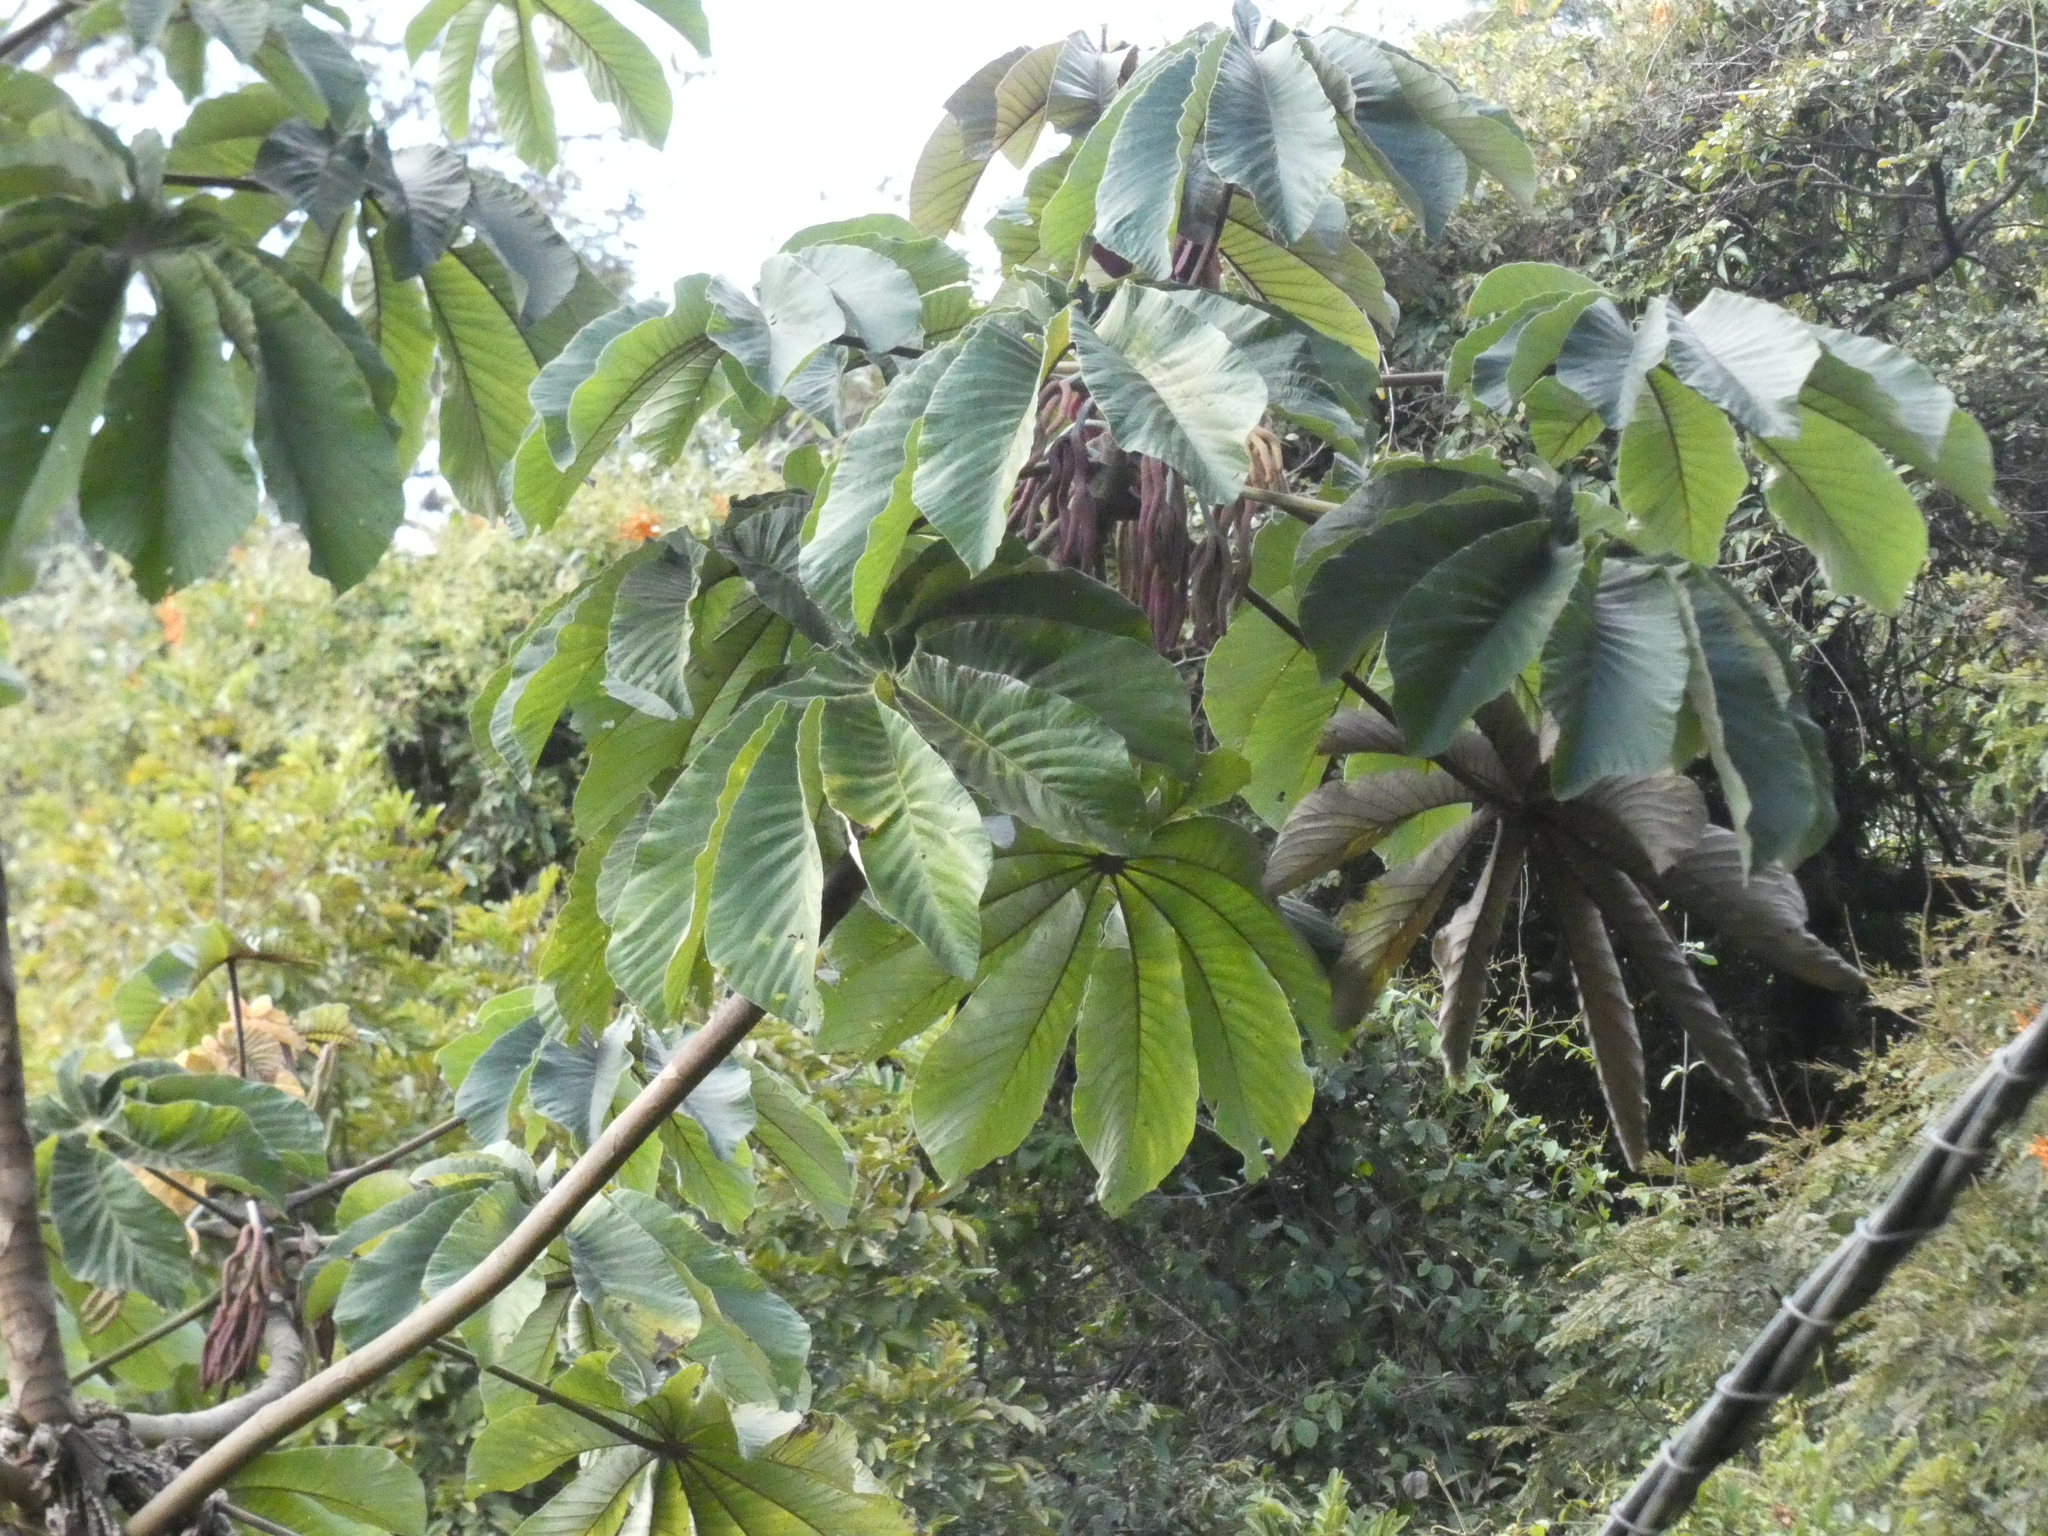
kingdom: Plantae
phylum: Tracheophyta
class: Magnoliopsida
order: Rosales
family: Urticaceae
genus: Cecropia
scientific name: Cecropia glaziovii
